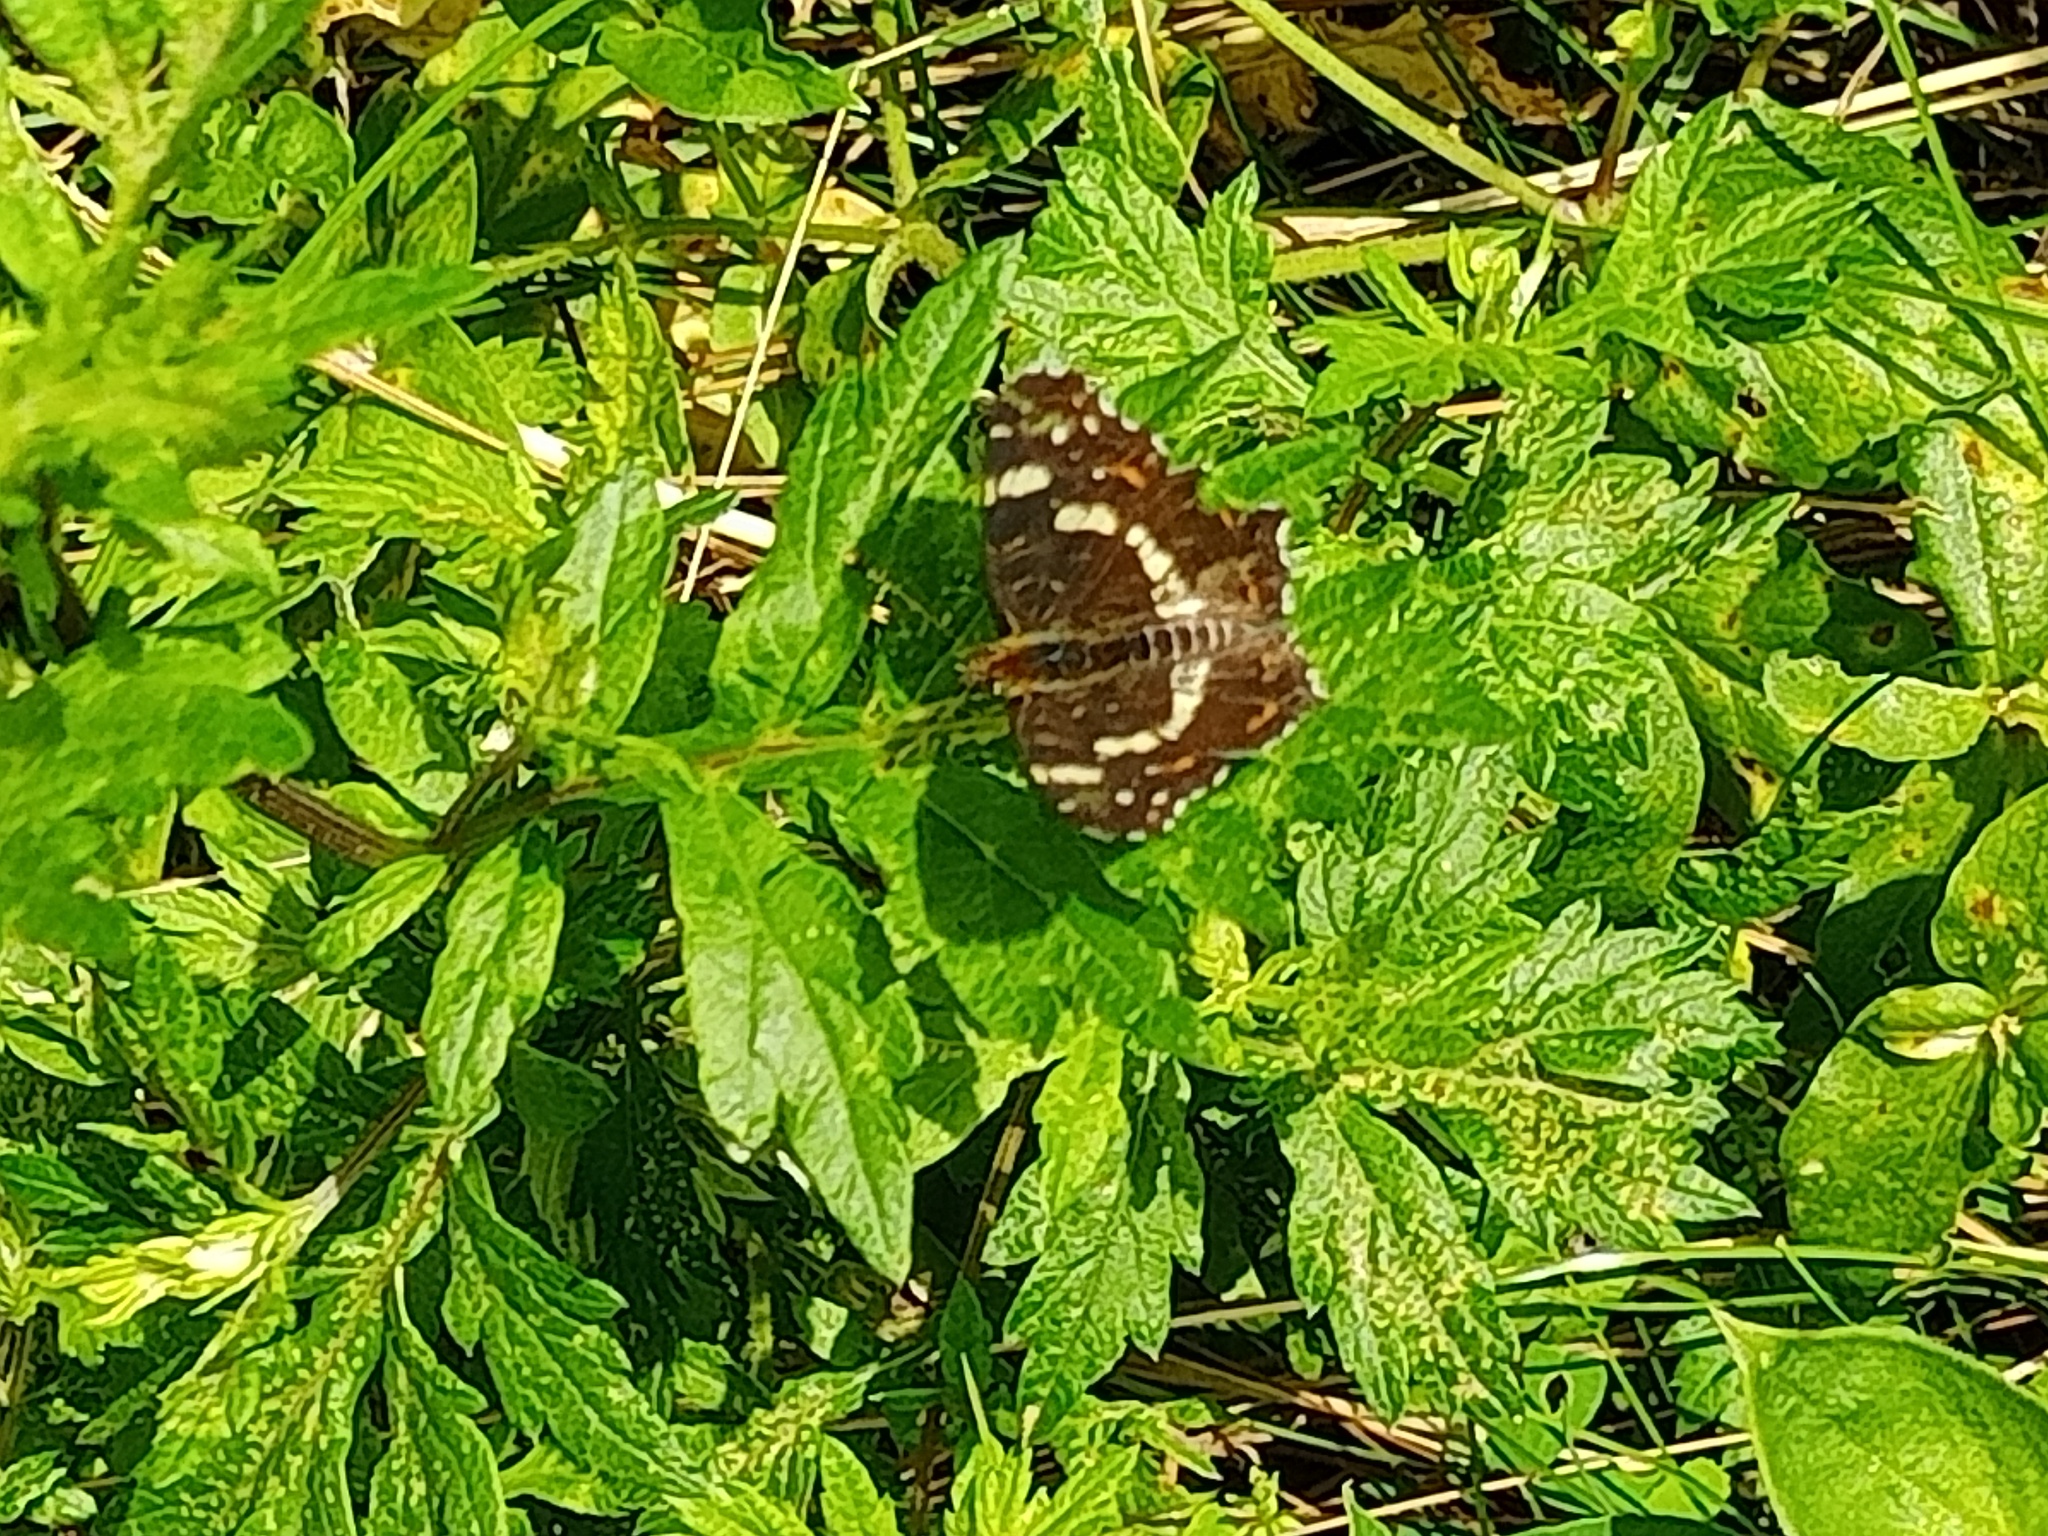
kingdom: Animalia
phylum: Arthropoda
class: Insecta
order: Lepidoptera
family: Nymphalidae
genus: Araschnia
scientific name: Araschnia levana
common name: Map butterfly
